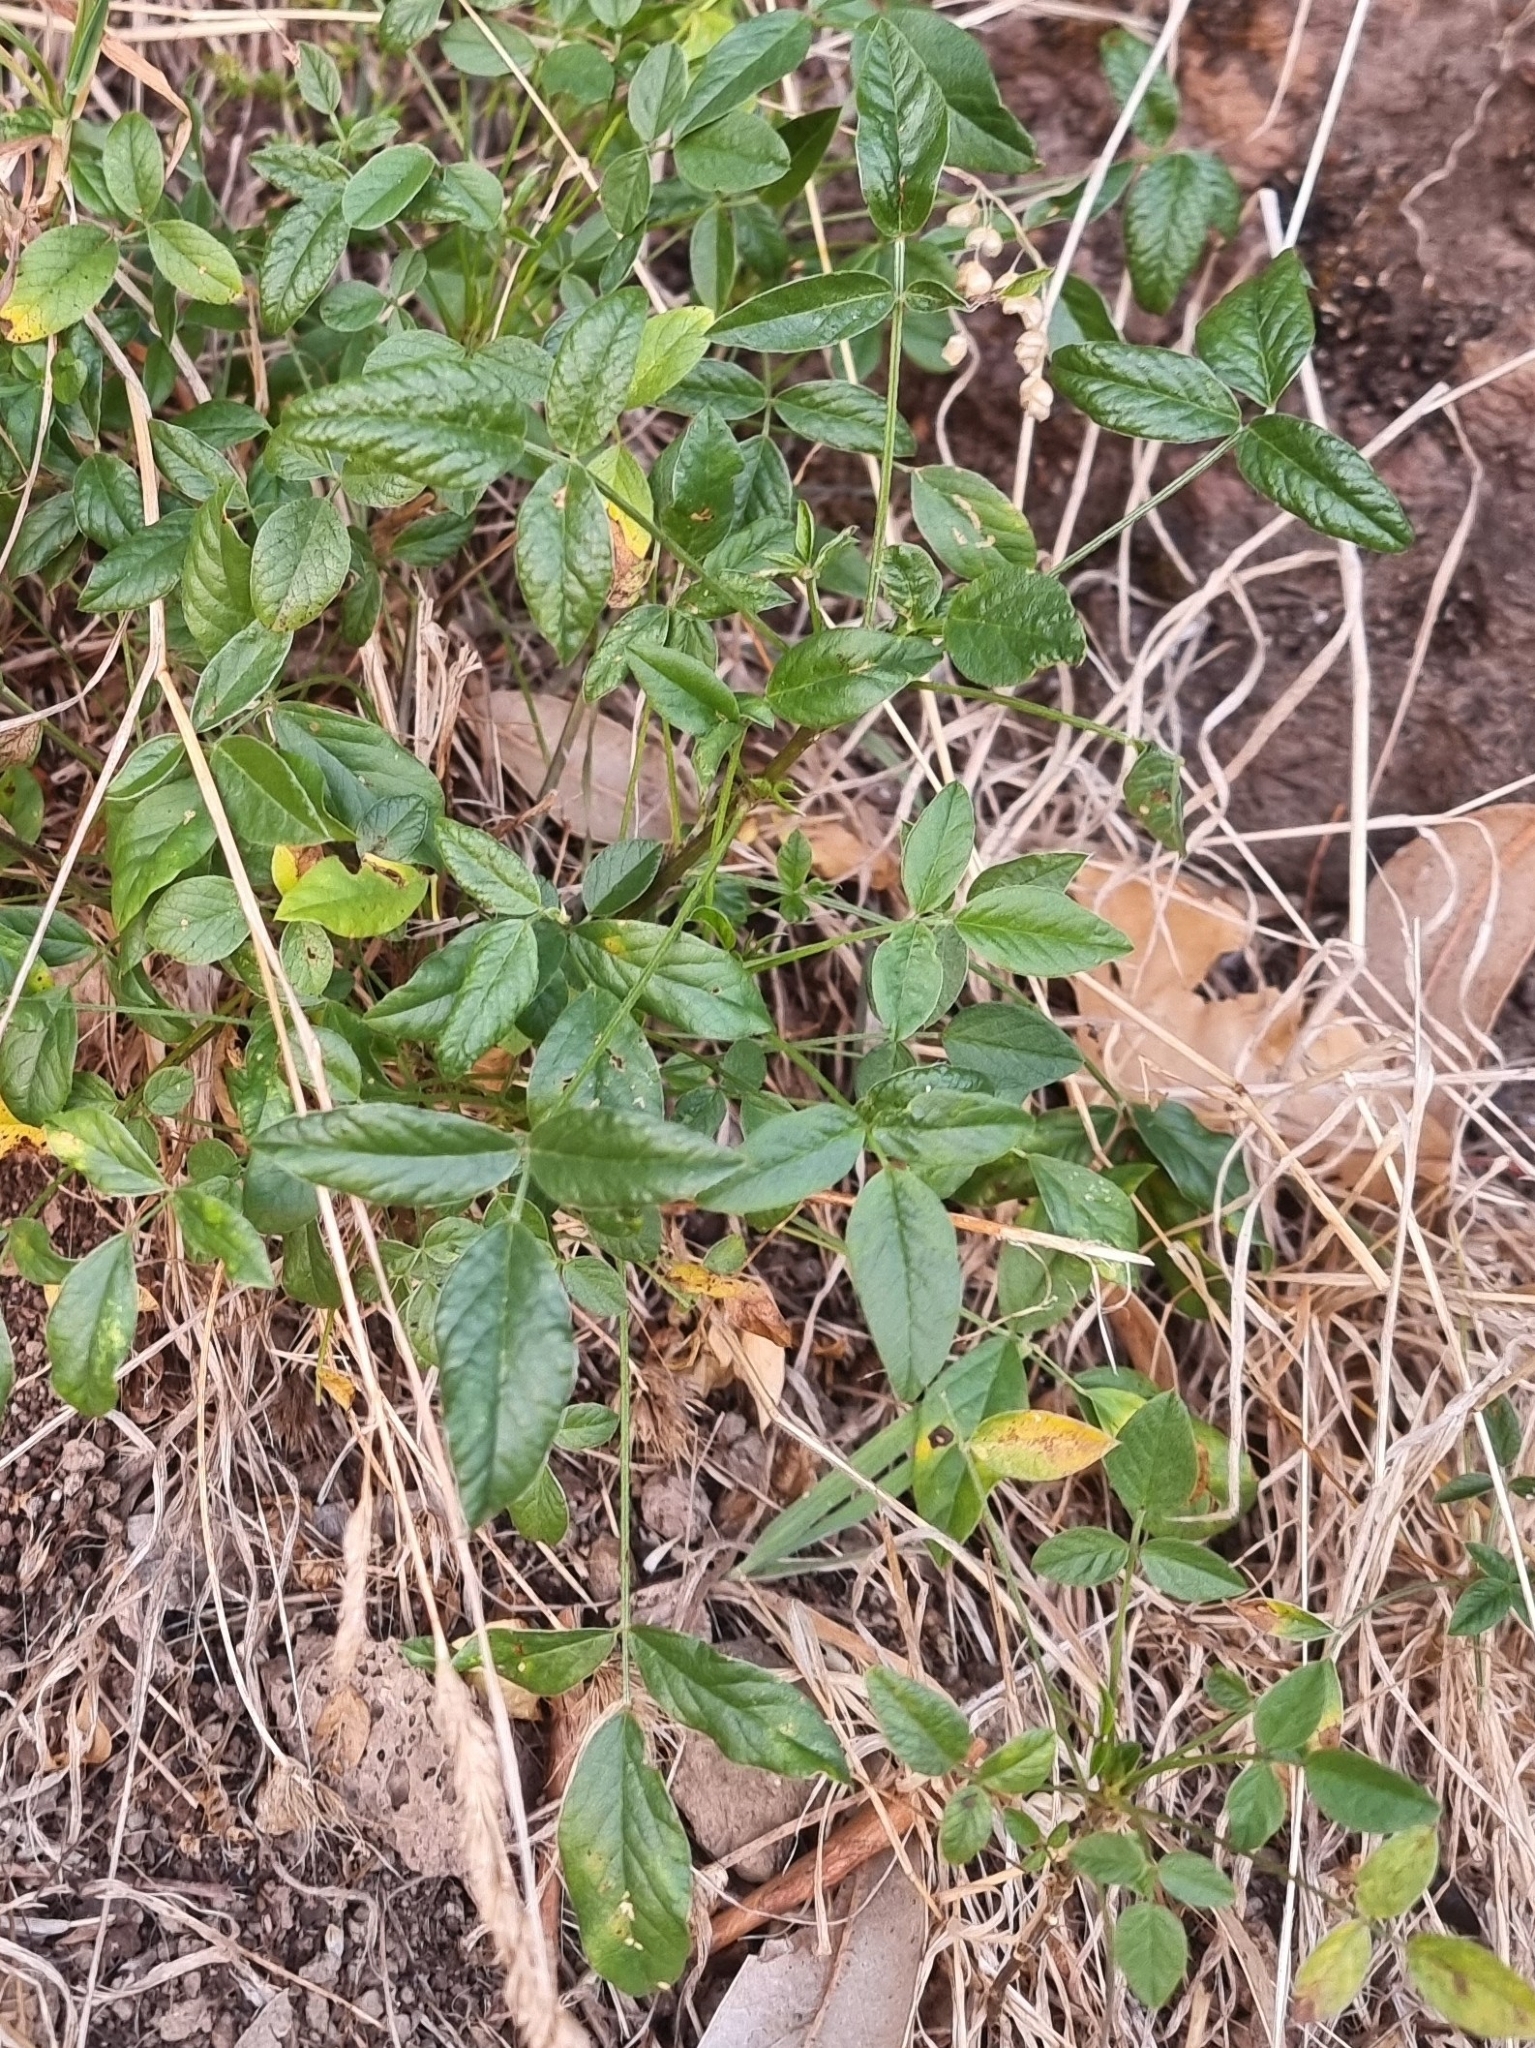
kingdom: Plantae
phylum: Tracheophyta
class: Magnoliopsida
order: Fabales
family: Fabaceae
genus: Bituminaria
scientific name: Bituminaria bituminosa
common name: Arabian pea
